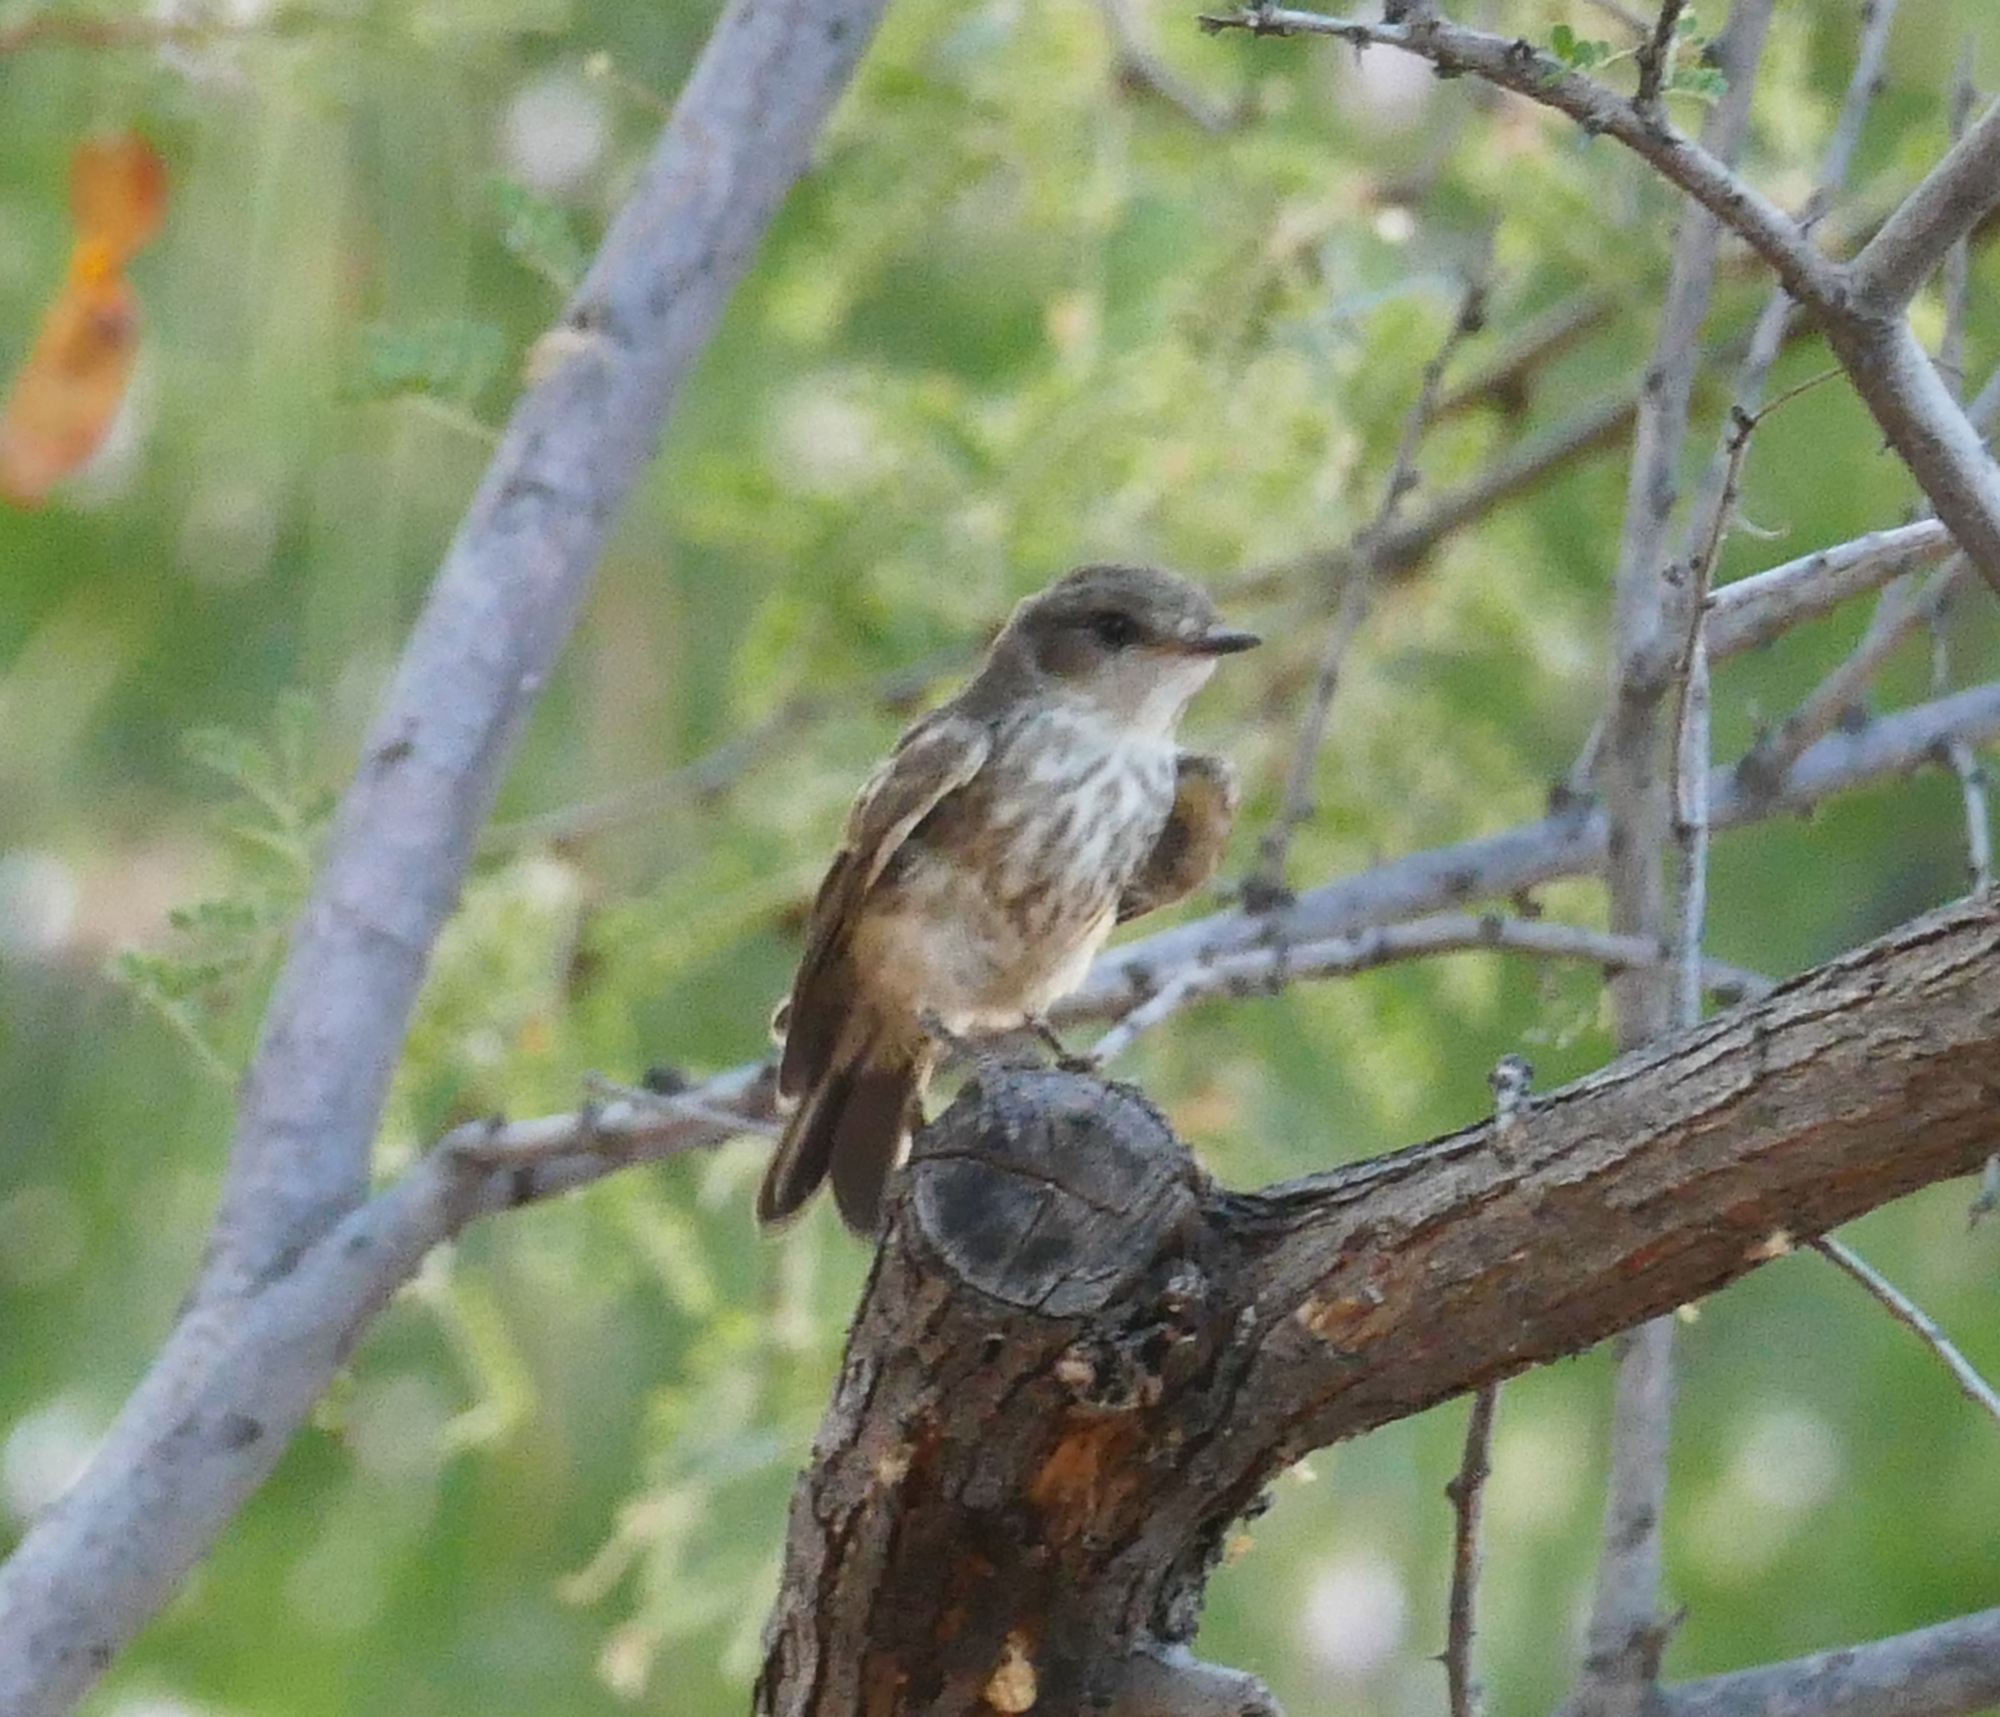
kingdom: Animalia
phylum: Chordata
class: Aves
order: Passeriformes
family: Tyrannidae
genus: Pyrocephalus
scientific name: Pyrocephalus rubinus
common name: Vermilion flycatcher
